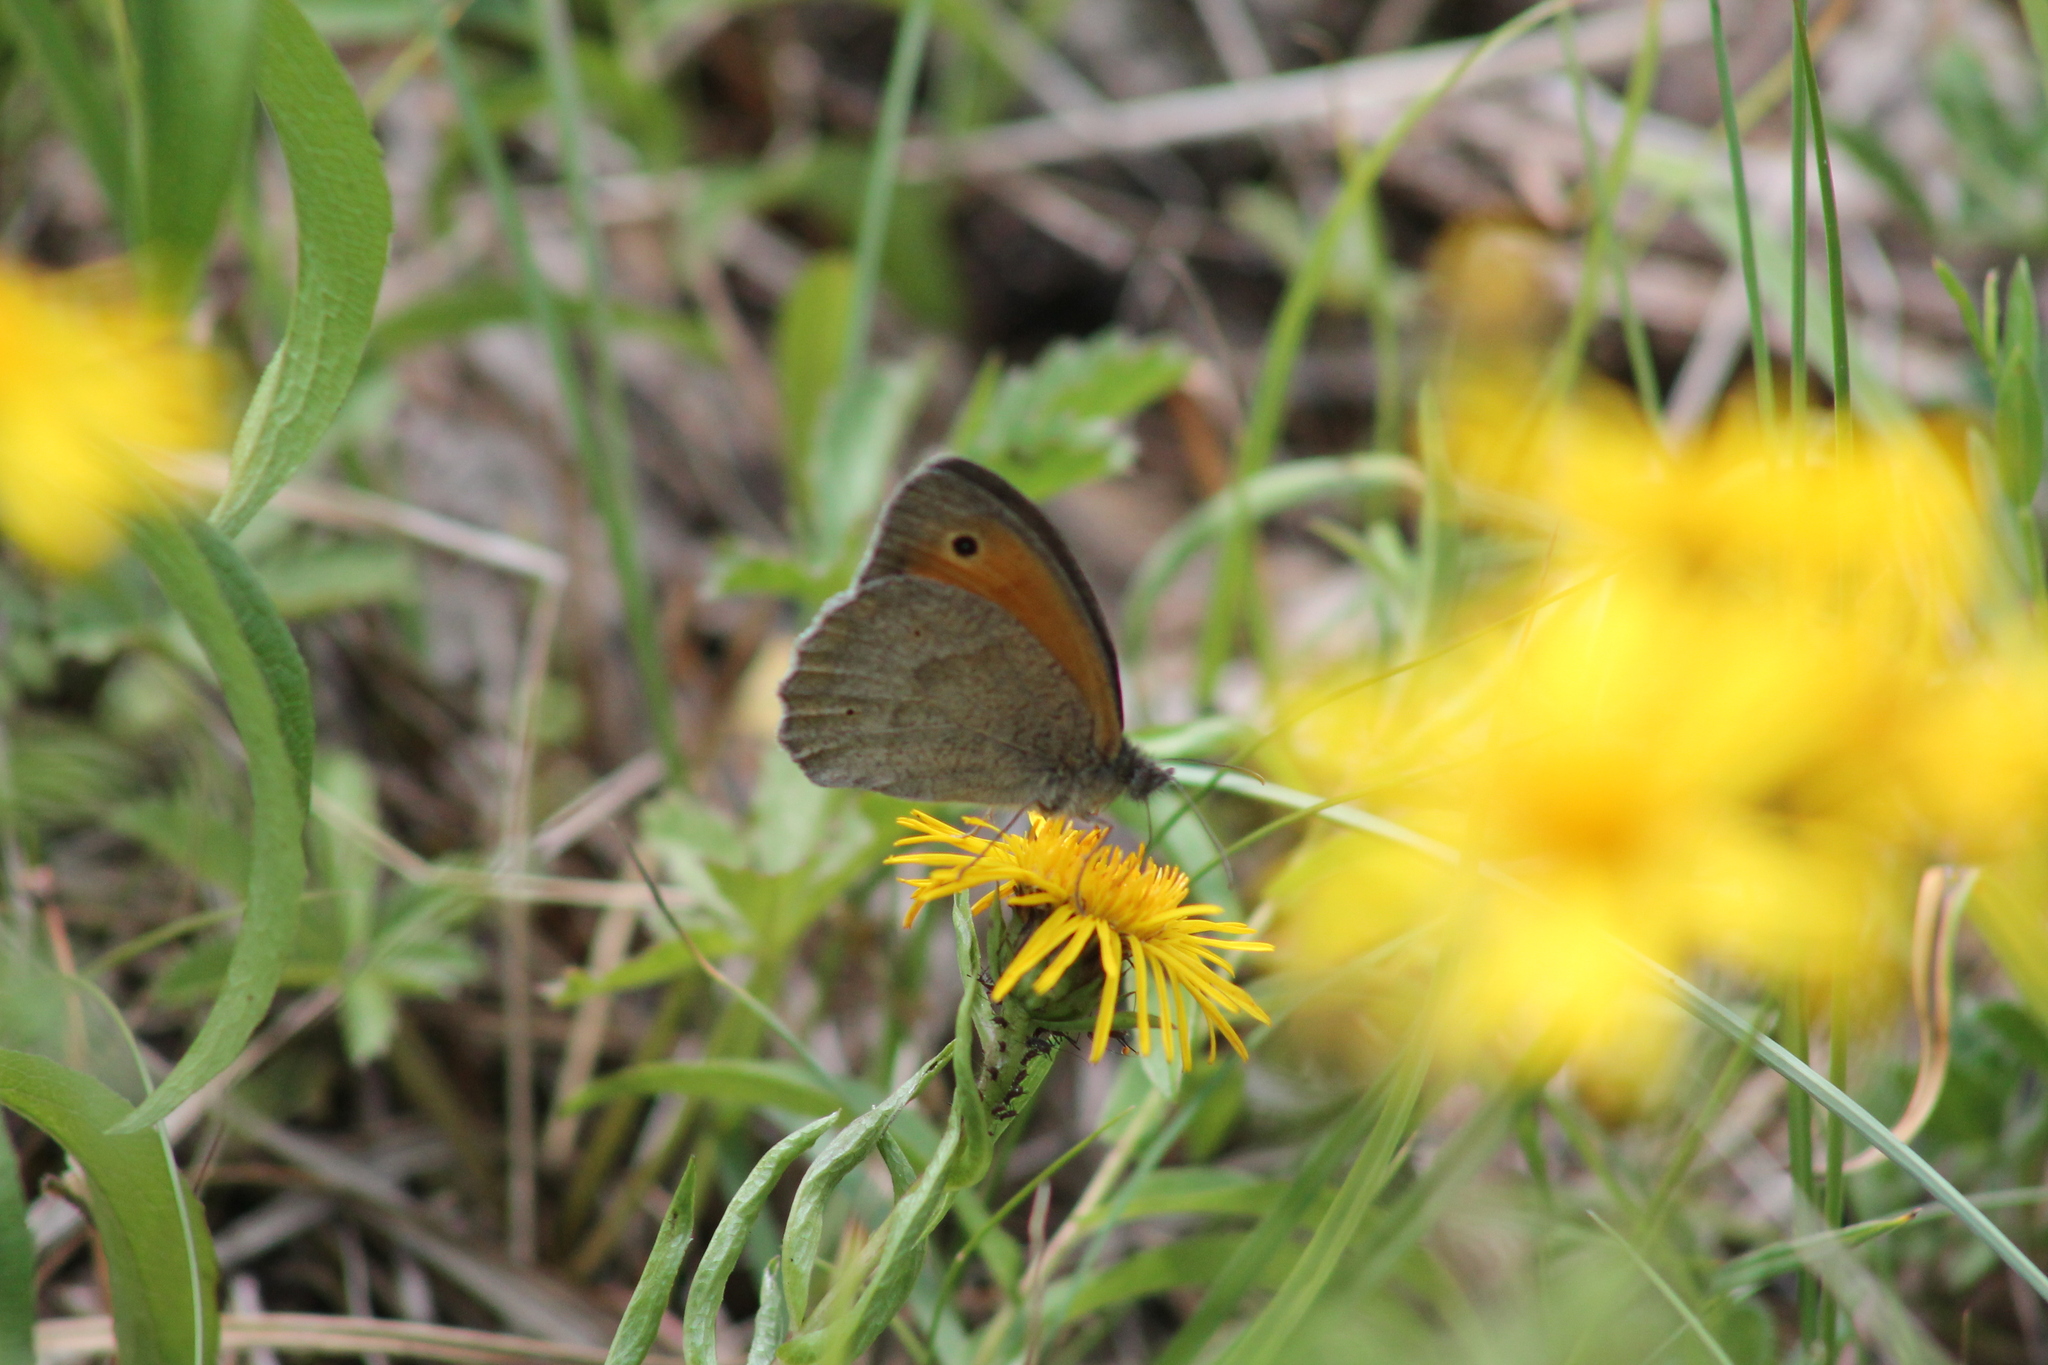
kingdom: Animalia
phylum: Arthropoda
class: Insecta
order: Lepidoptera
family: Nymphalidae
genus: Maniola
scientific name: Maniola jurtina
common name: Meadow brown
